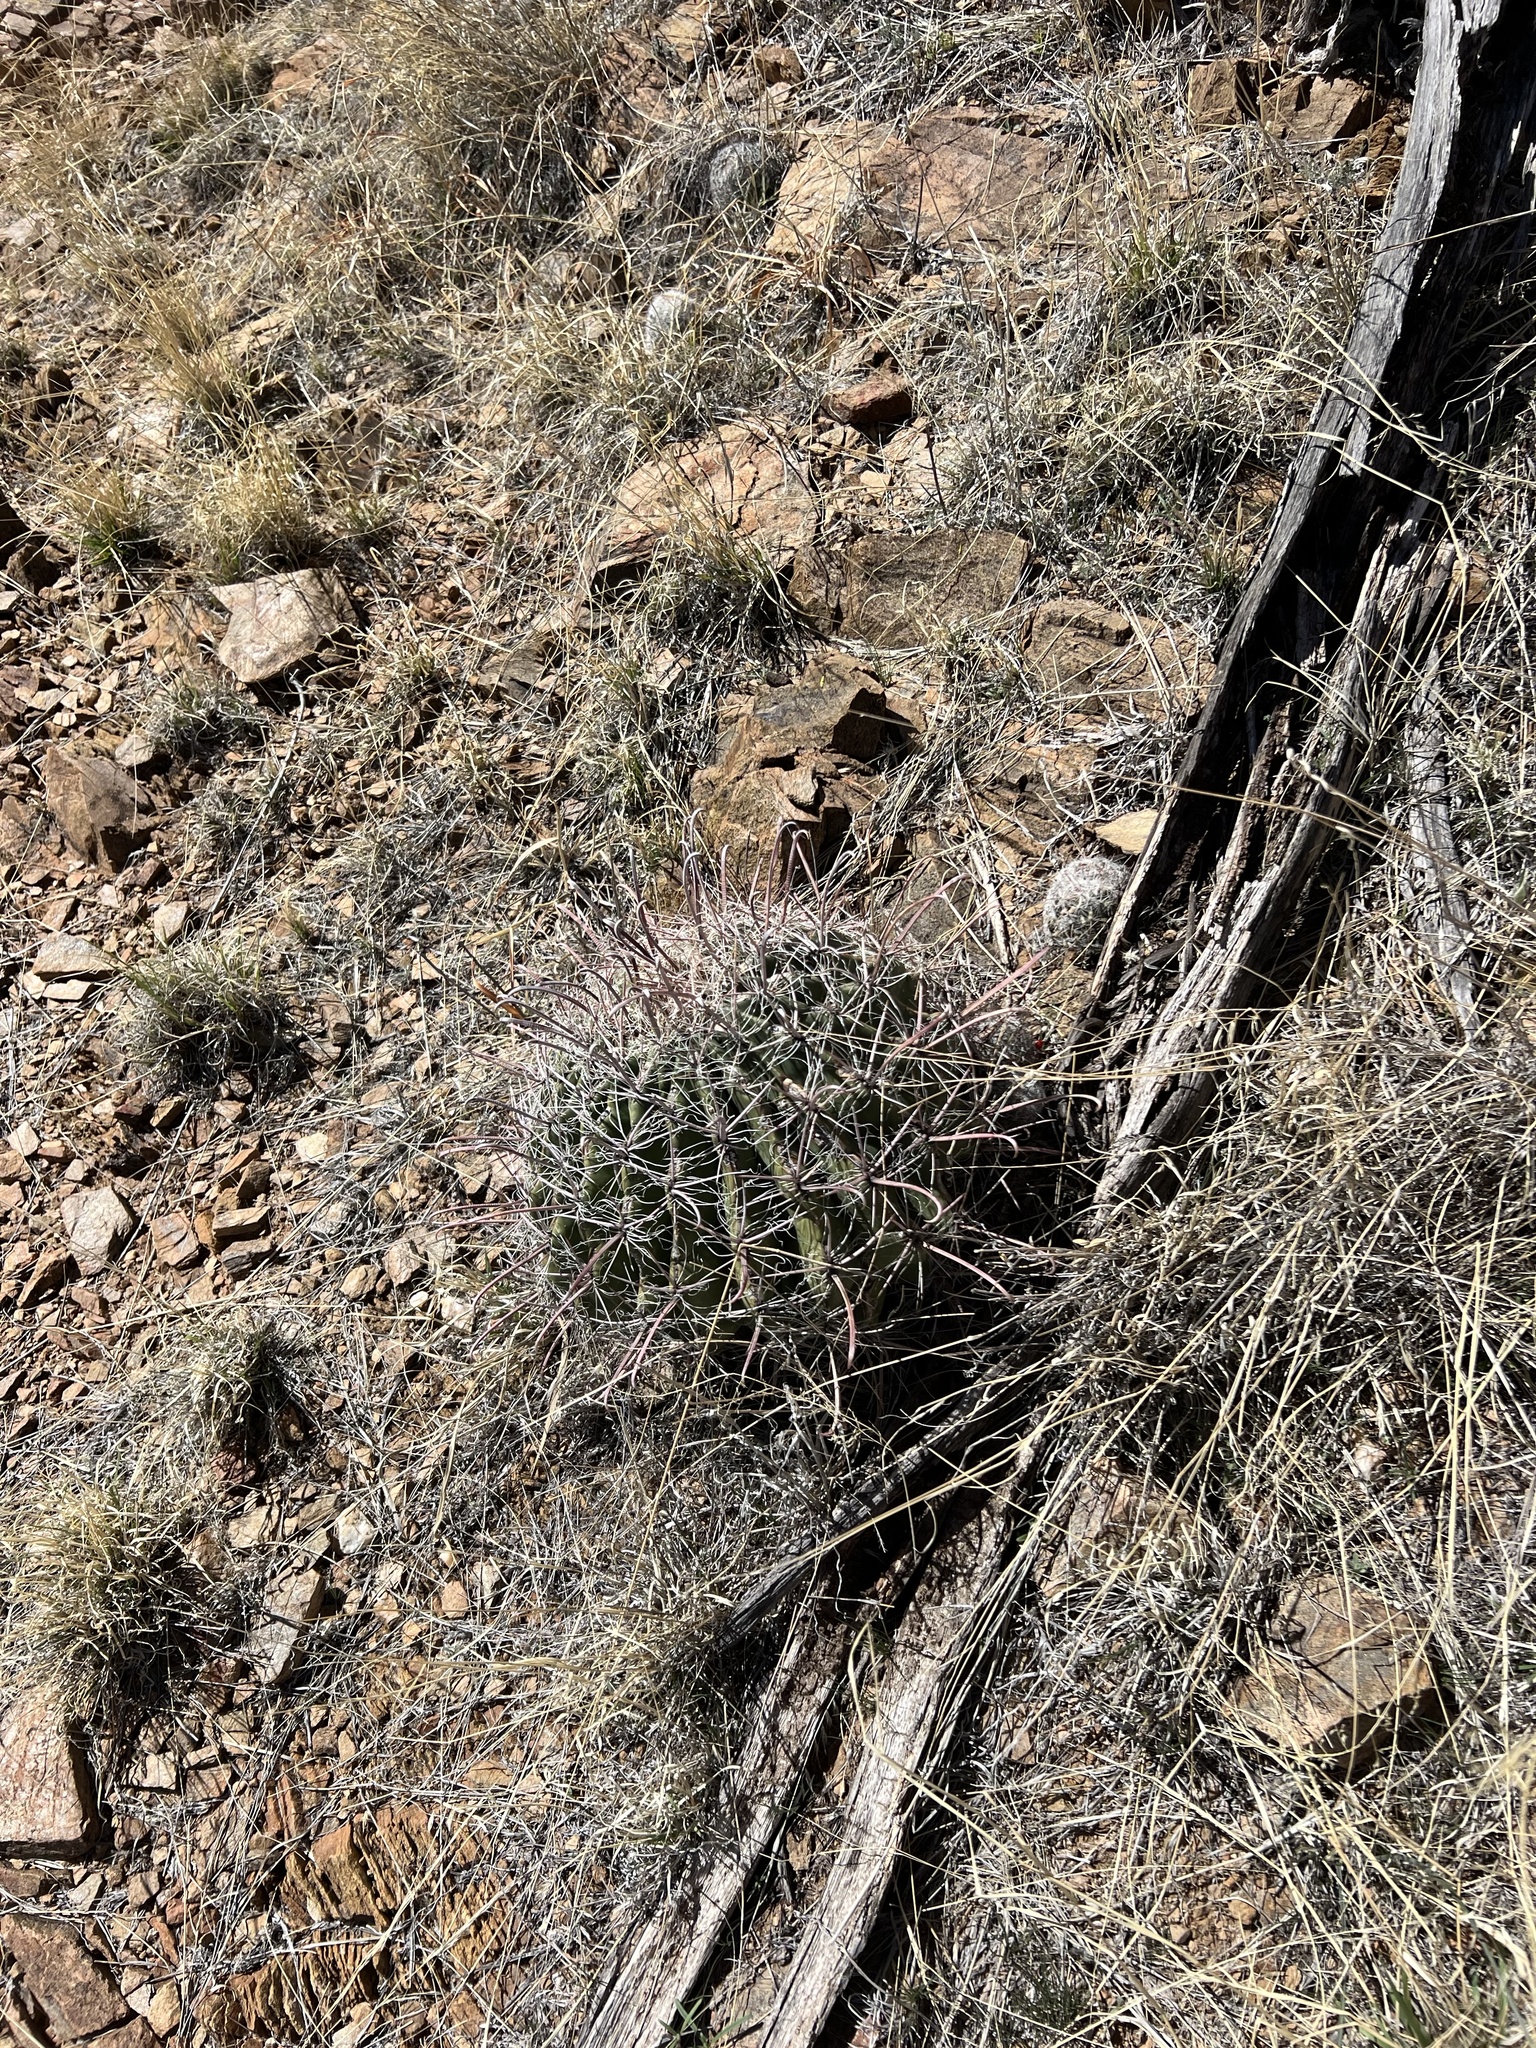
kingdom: Plantae
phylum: Tracheophyta
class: Magnoliopsida
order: Caryophyllales
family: Cactaceae
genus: Ferocactus
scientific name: Ferocactus wislizeni
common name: Candy barrel cactus
